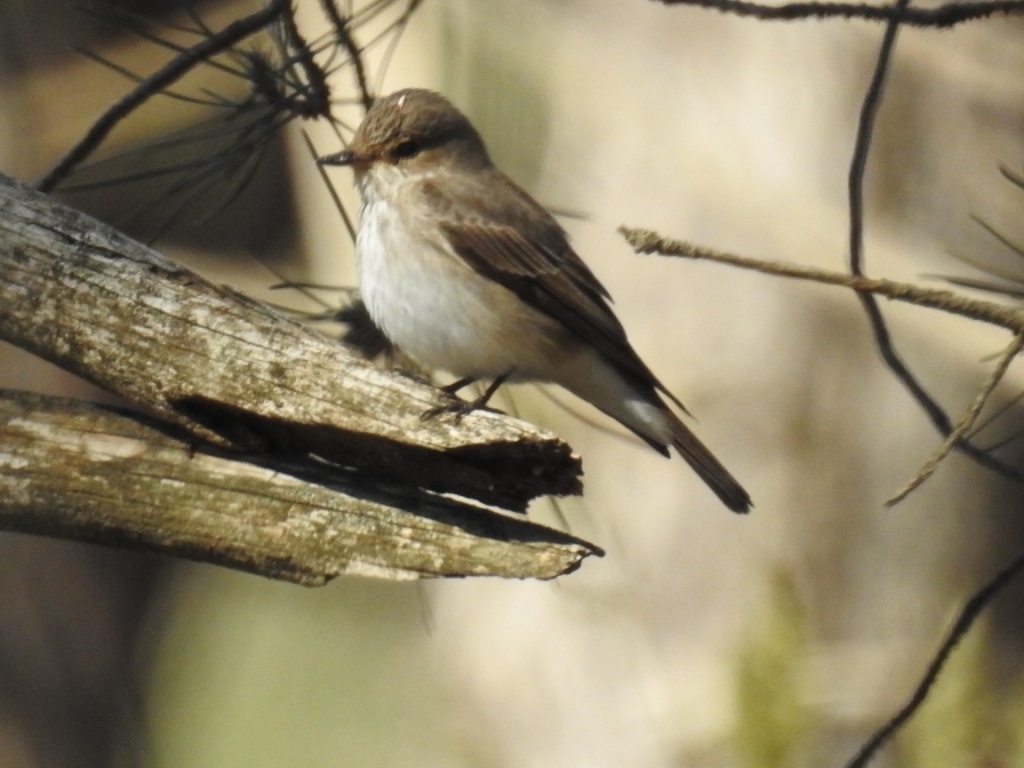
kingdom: Animalia
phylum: Chordata
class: Aves
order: Passeriformes
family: Muscicapidae
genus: Muscicapa
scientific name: Muscicapa striata
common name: Spotted flycatcher
